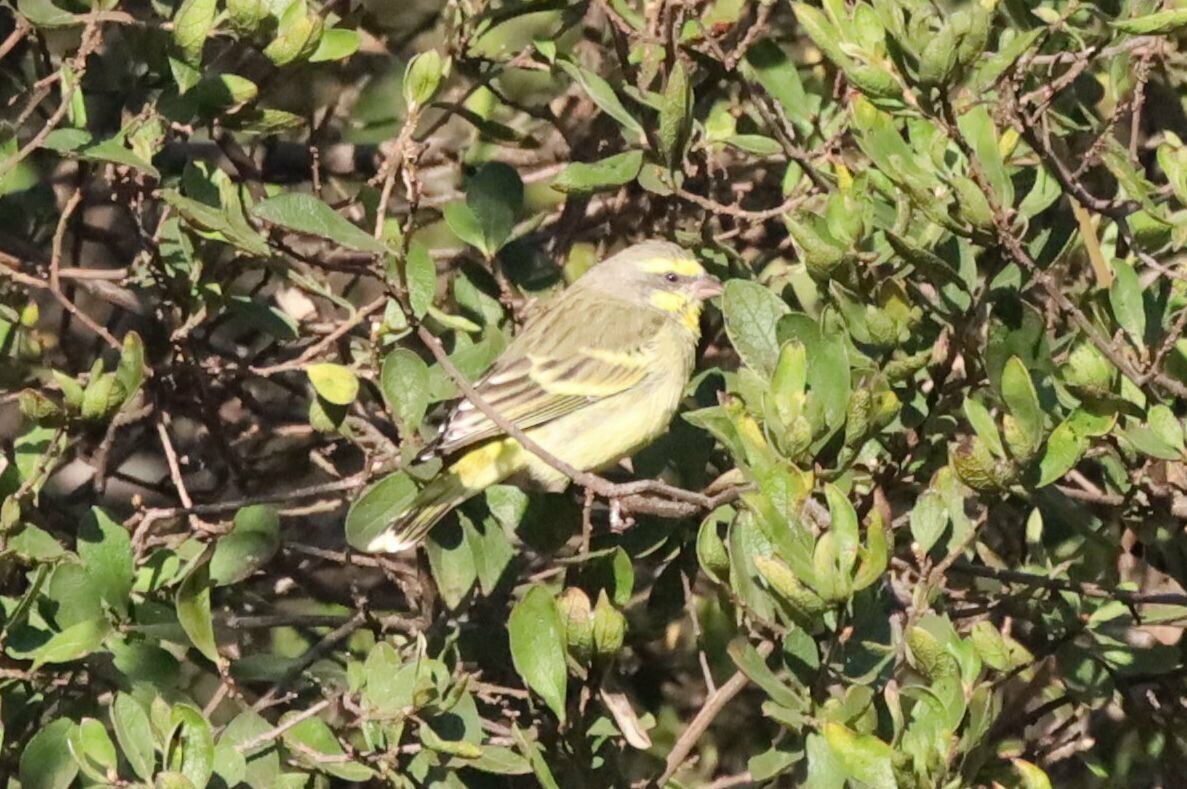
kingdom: Animalia
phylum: Chordata
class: Aves
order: Passeriformes
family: Fringillidae
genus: Crithagra
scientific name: Crithagra mozambica
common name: Yellow-fronted canary
